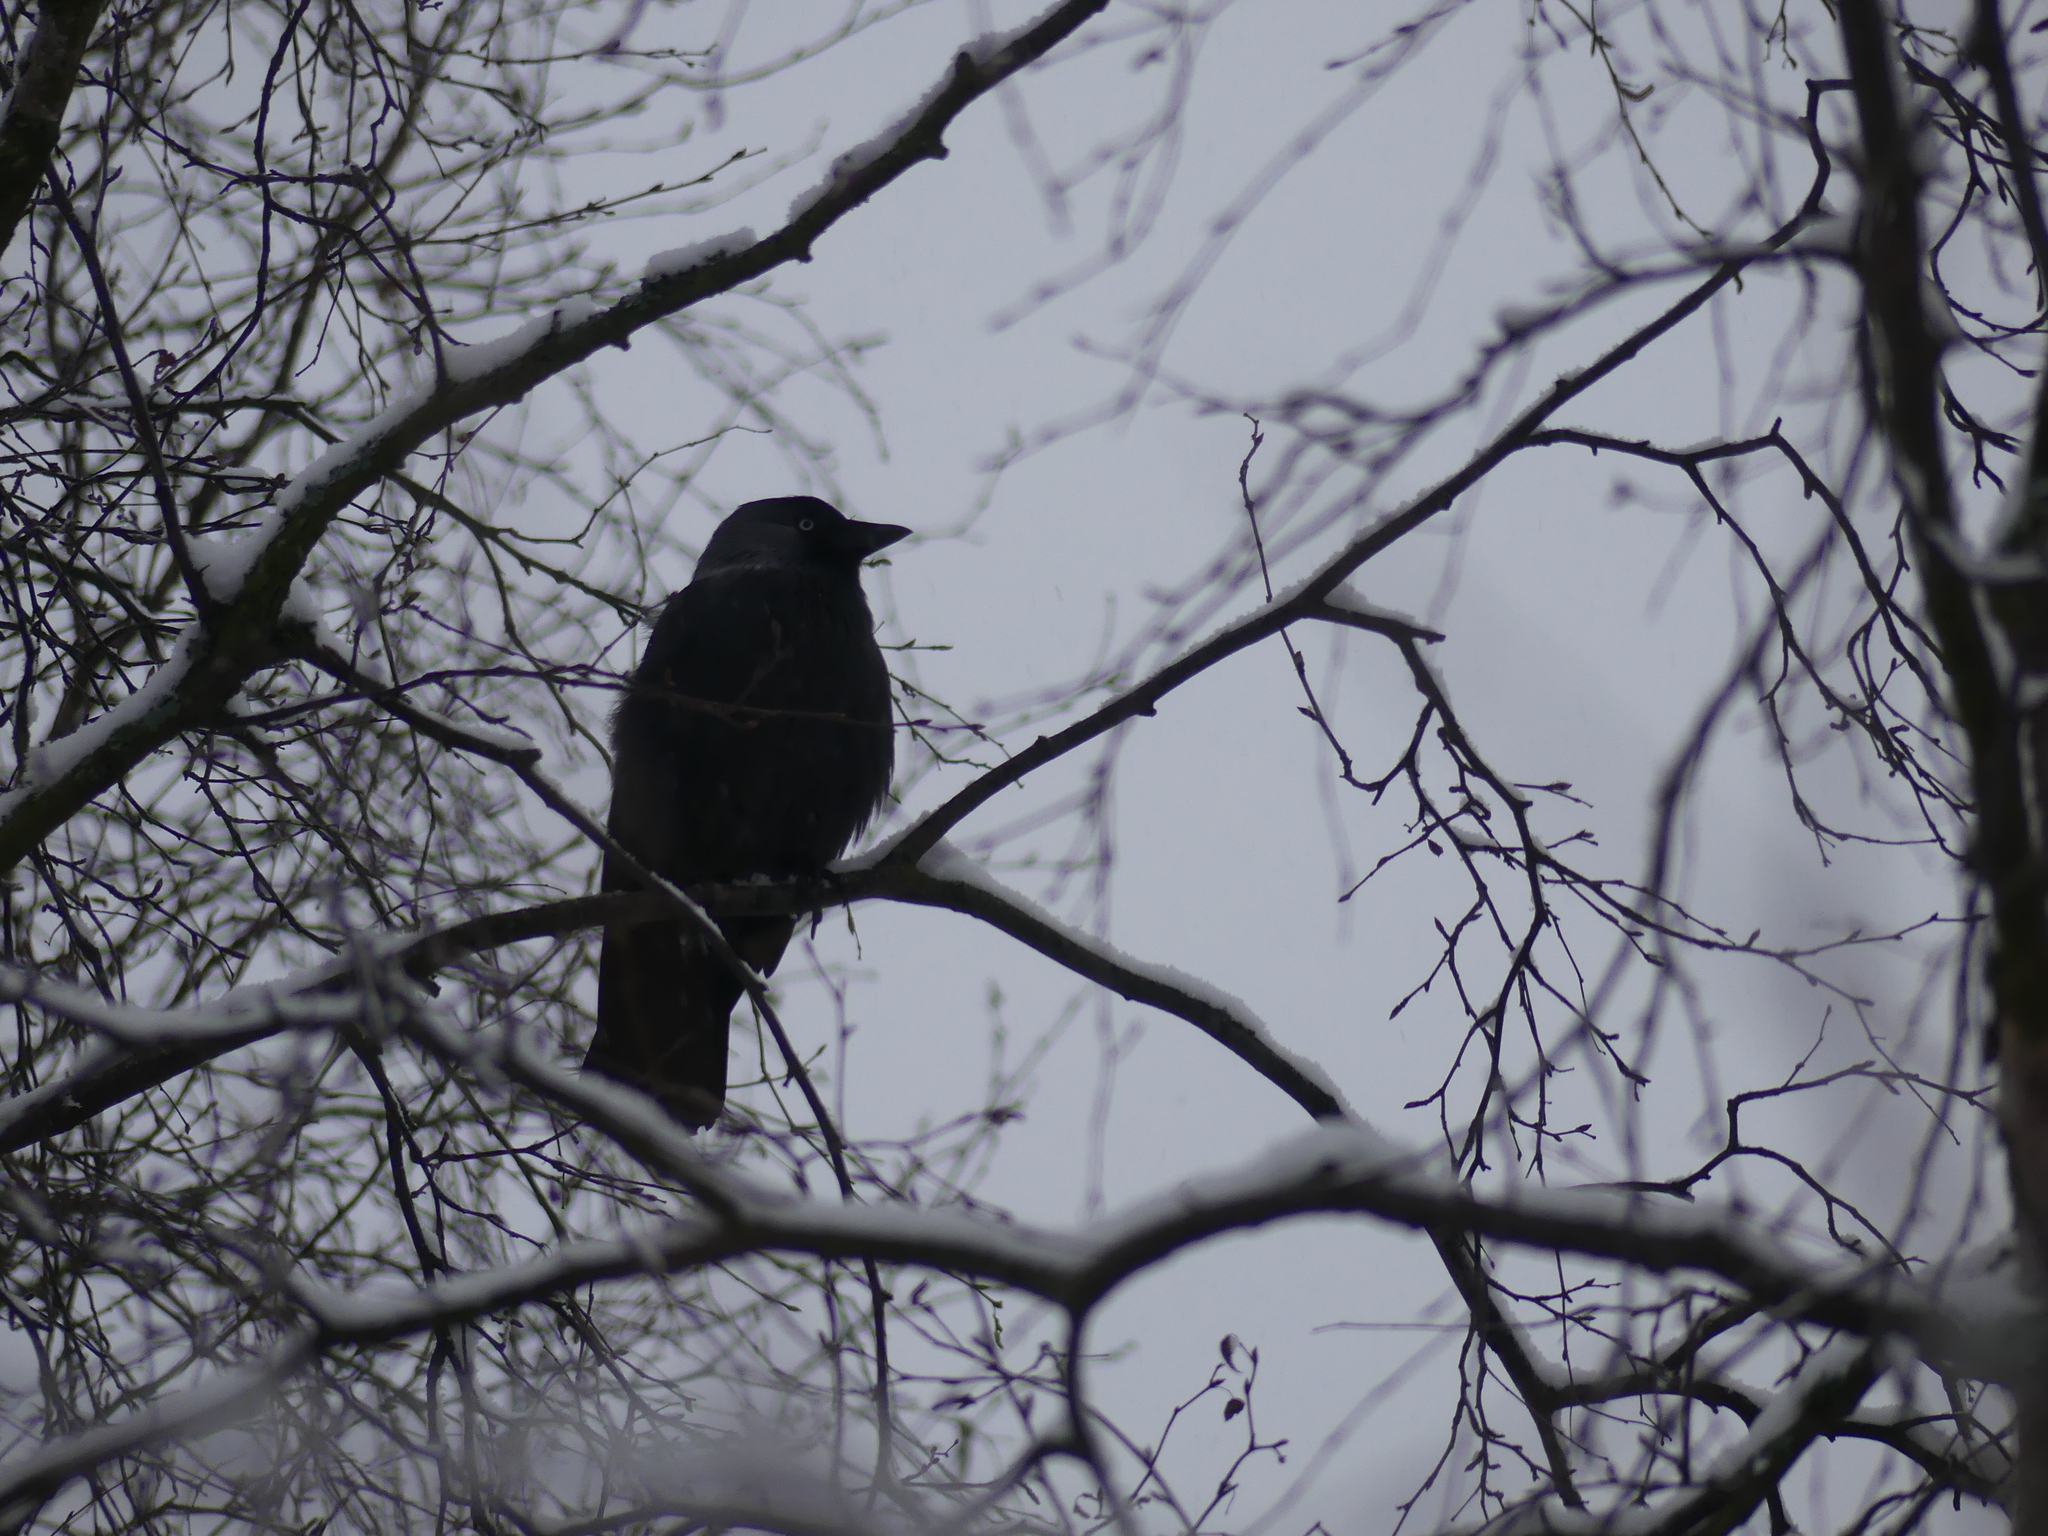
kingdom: Animalia
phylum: Chordata
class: Aves
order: Passeriformes
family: Corvidae
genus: Coloeus
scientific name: Coloeus monedula
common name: Western jackdaw
